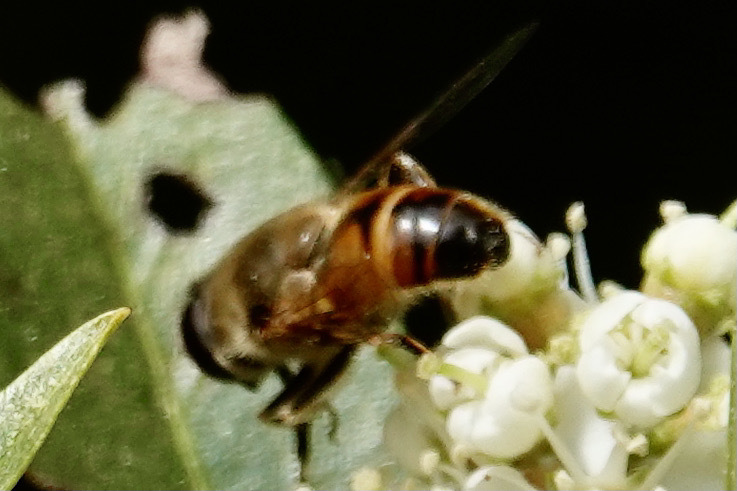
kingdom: Animalia
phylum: Arthropoda
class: Insecta
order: Diptera
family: Syrphidae
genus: Eristalis
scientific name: Eristalis tenax
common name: Drone fly
